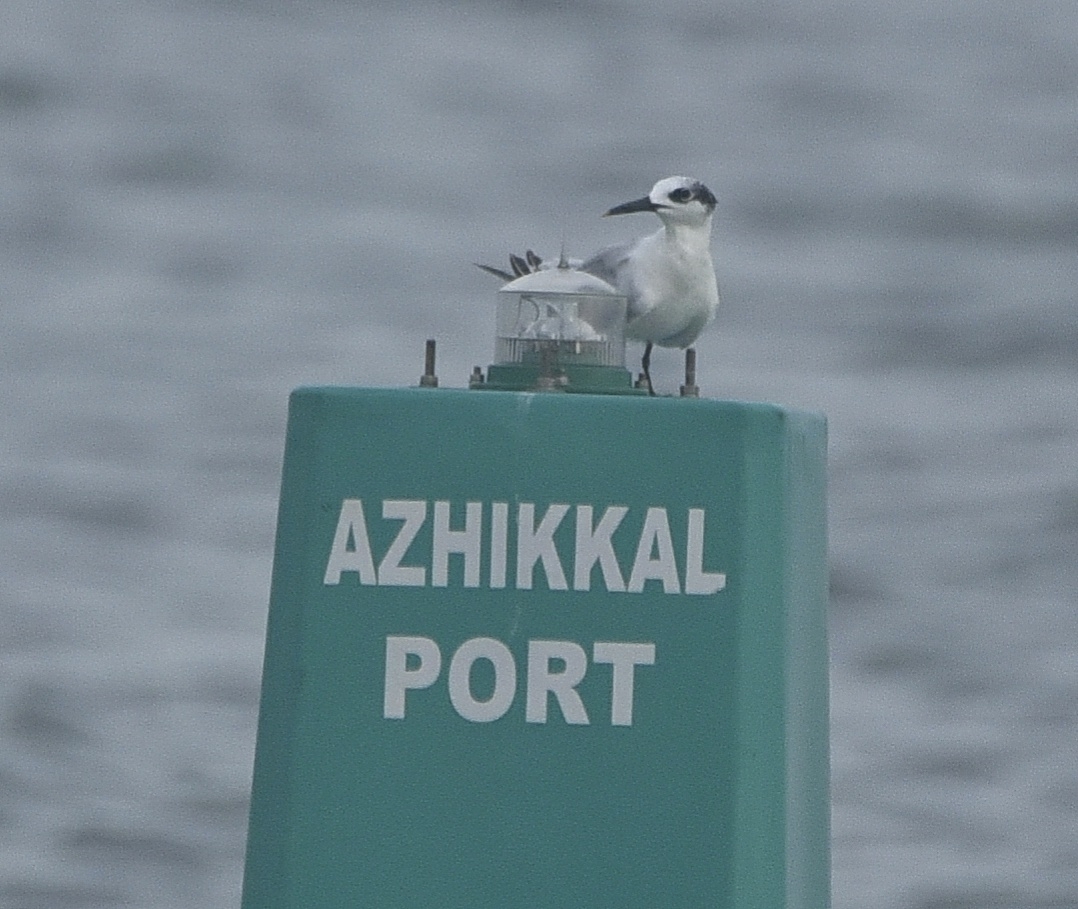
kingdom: Animalia
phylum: Chordata
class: Aves
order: Charadriiformes
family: Laridae
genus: Thalasseus
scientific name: Thalasseus sandvicensis
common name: Sandwich tern
